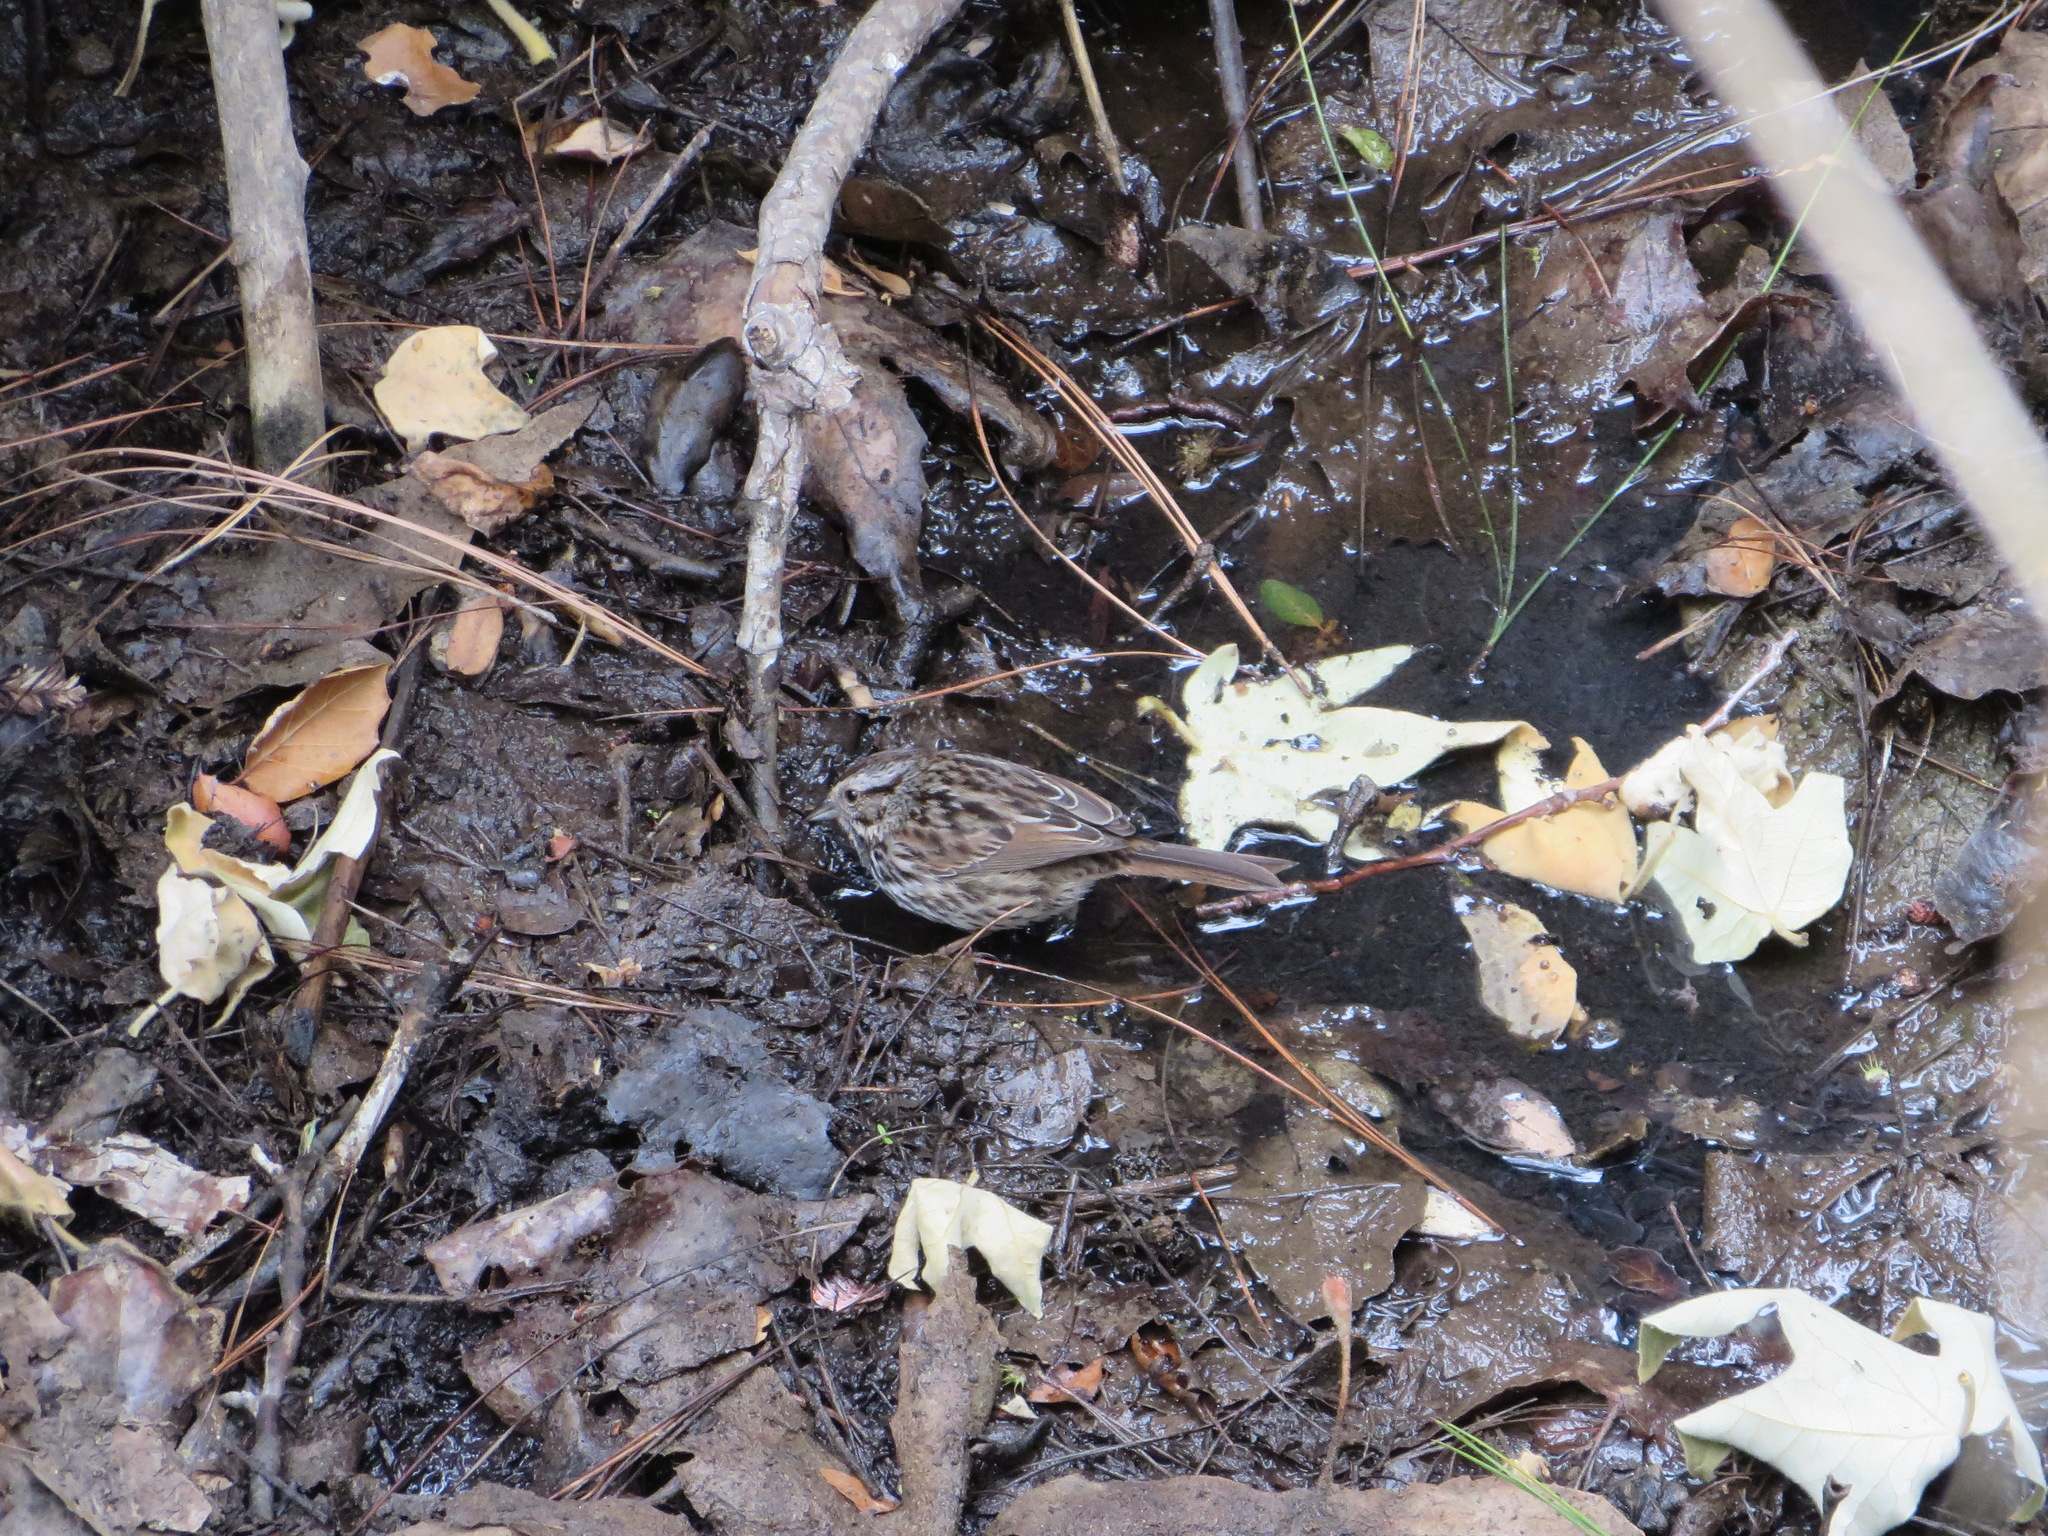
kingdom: Animalia
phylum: Chordata
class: Aves
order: Passeriformes
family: Passerellidae
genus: Melospiza
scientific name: Melospiza melodia
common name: Song sparrow
